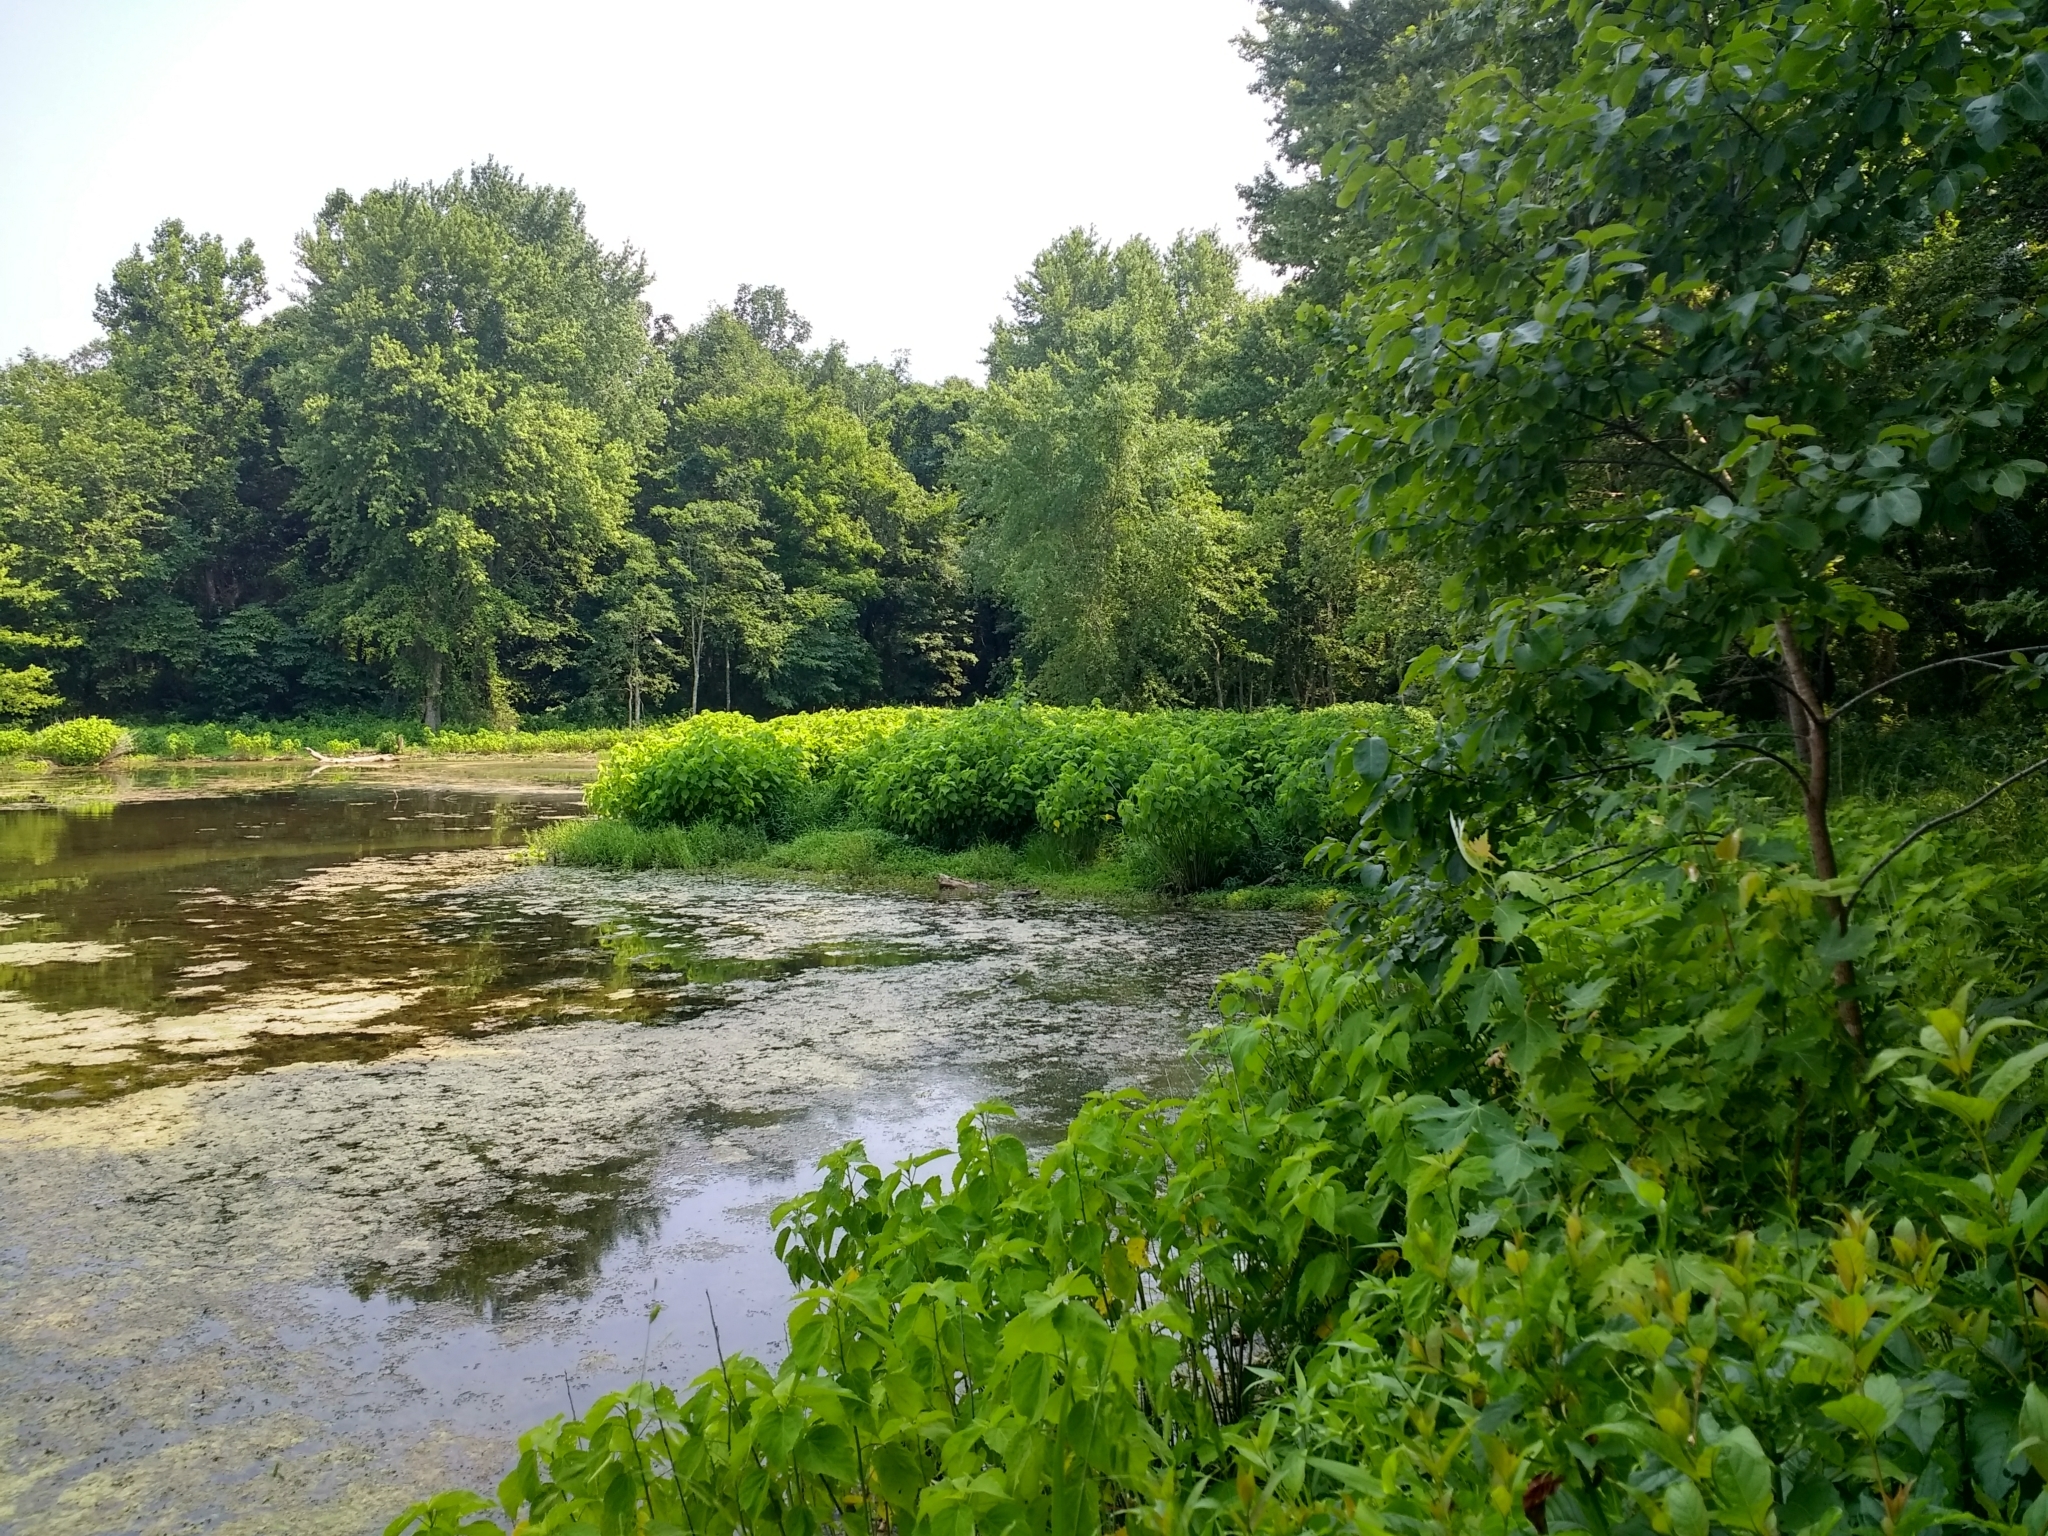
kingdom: Plantae
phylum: Tracheophyta
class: Magnoliopsida
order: Malvales
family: Malvaceae
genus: Hibiscus
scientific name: Hibiscus moscheutos
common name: Common rose-mallow
